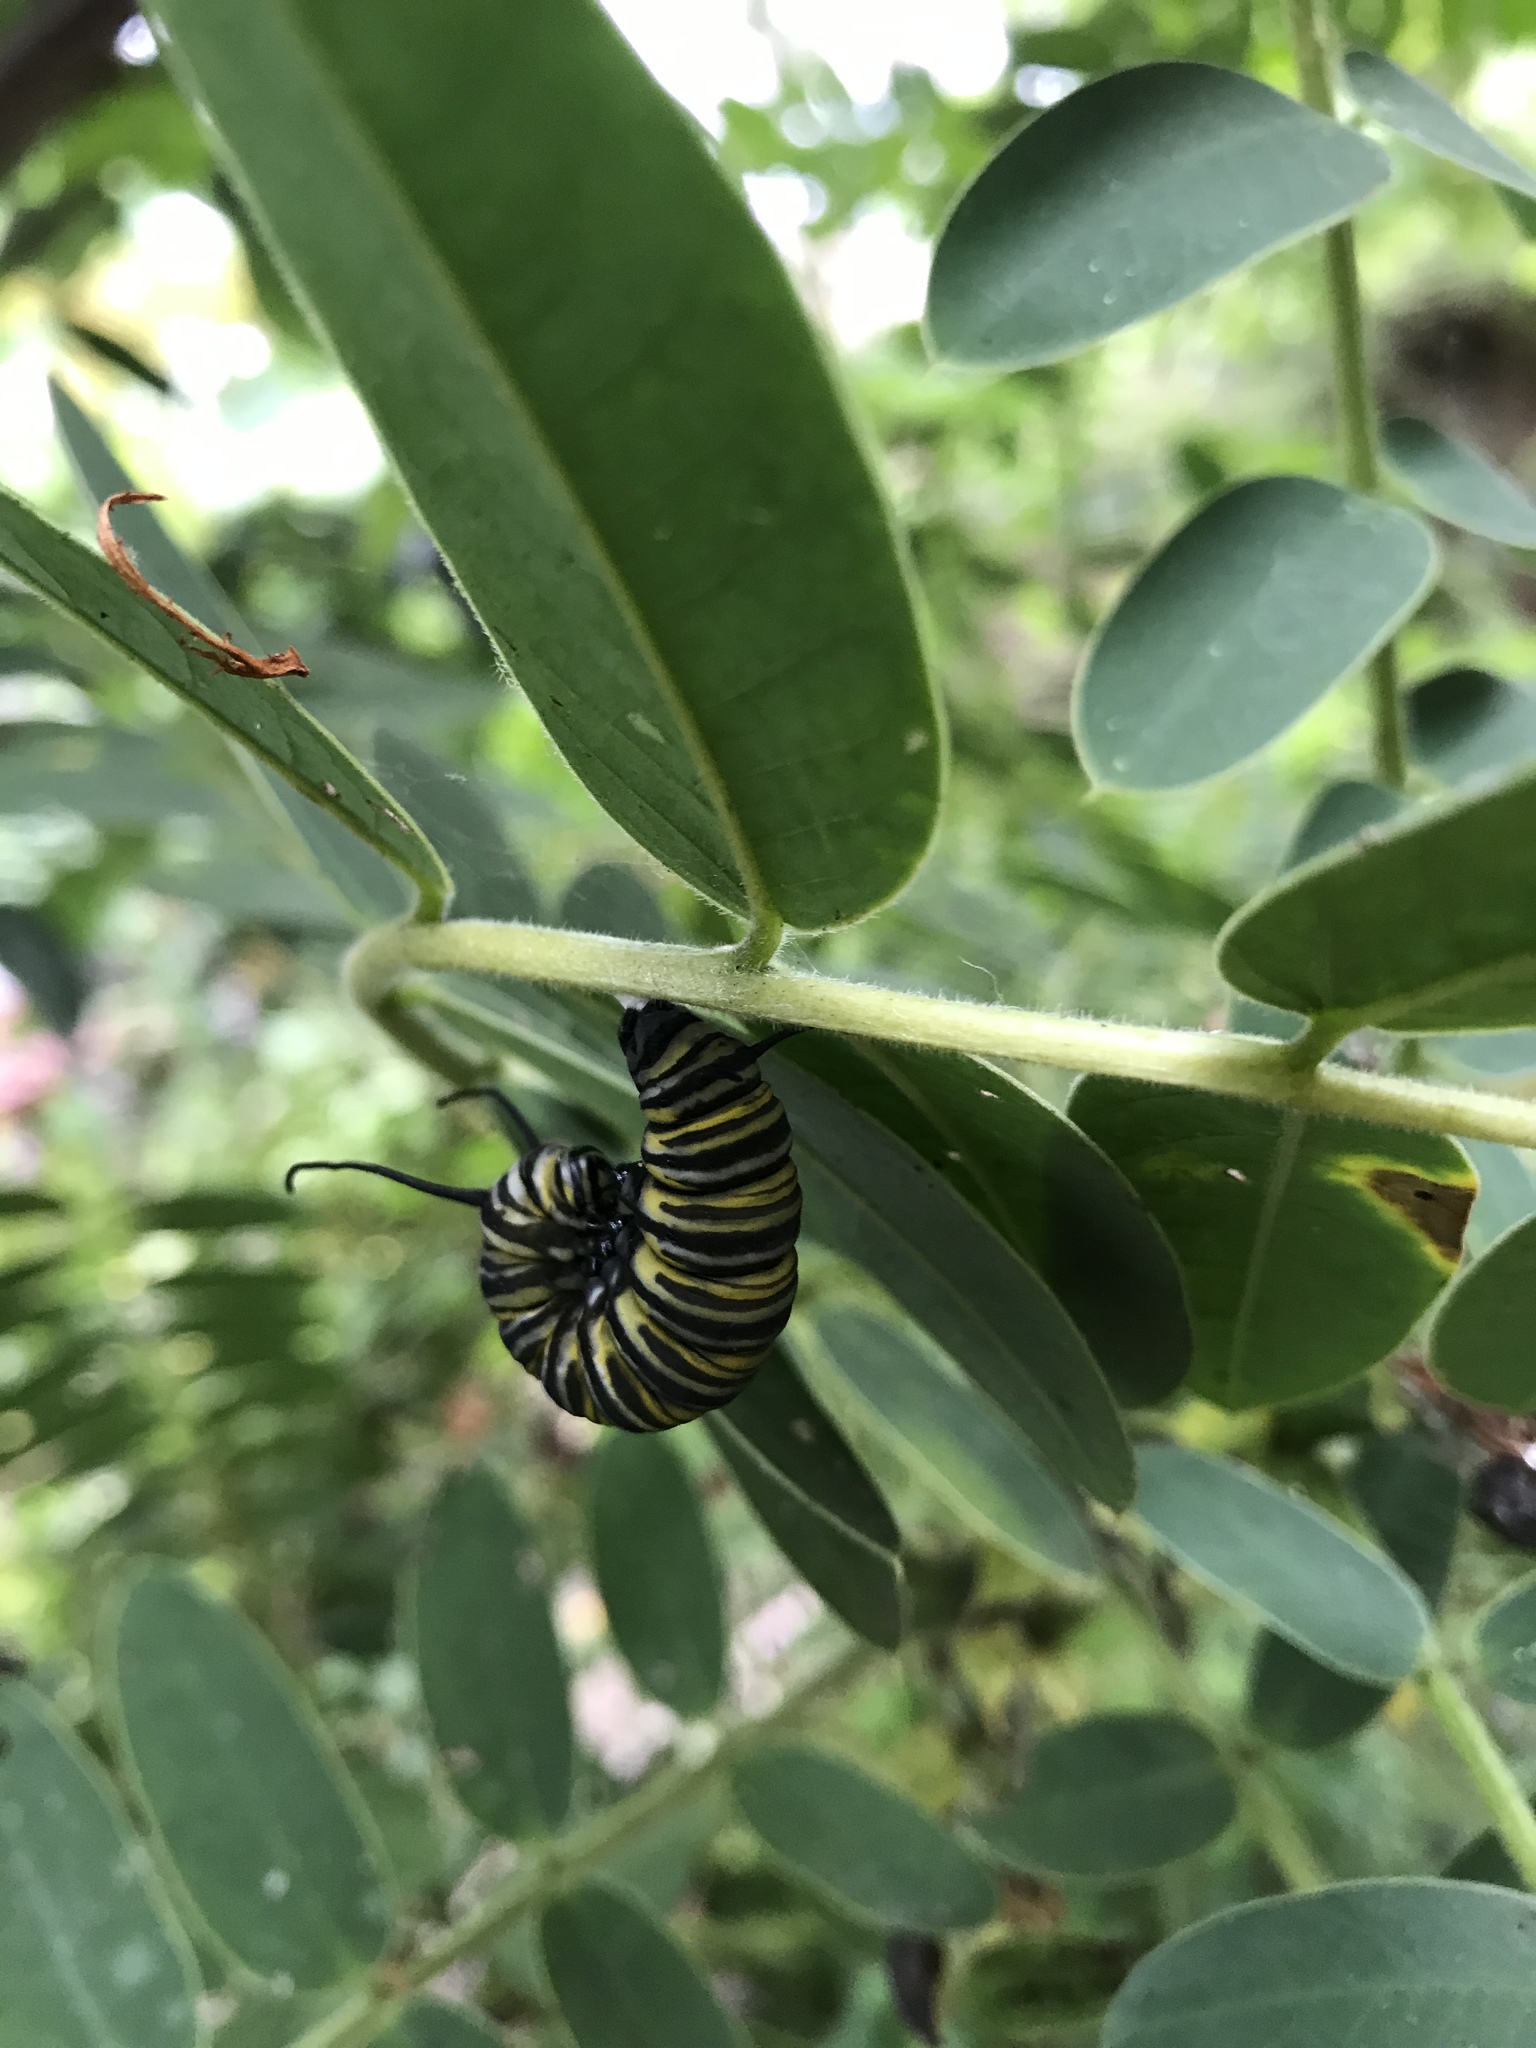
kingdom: Animalia
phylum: Arthropoda
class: Insecta
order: Lepidoptera
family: Nymphalidae
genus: Danaus
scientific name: Danaus plexippus
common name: Monarch
